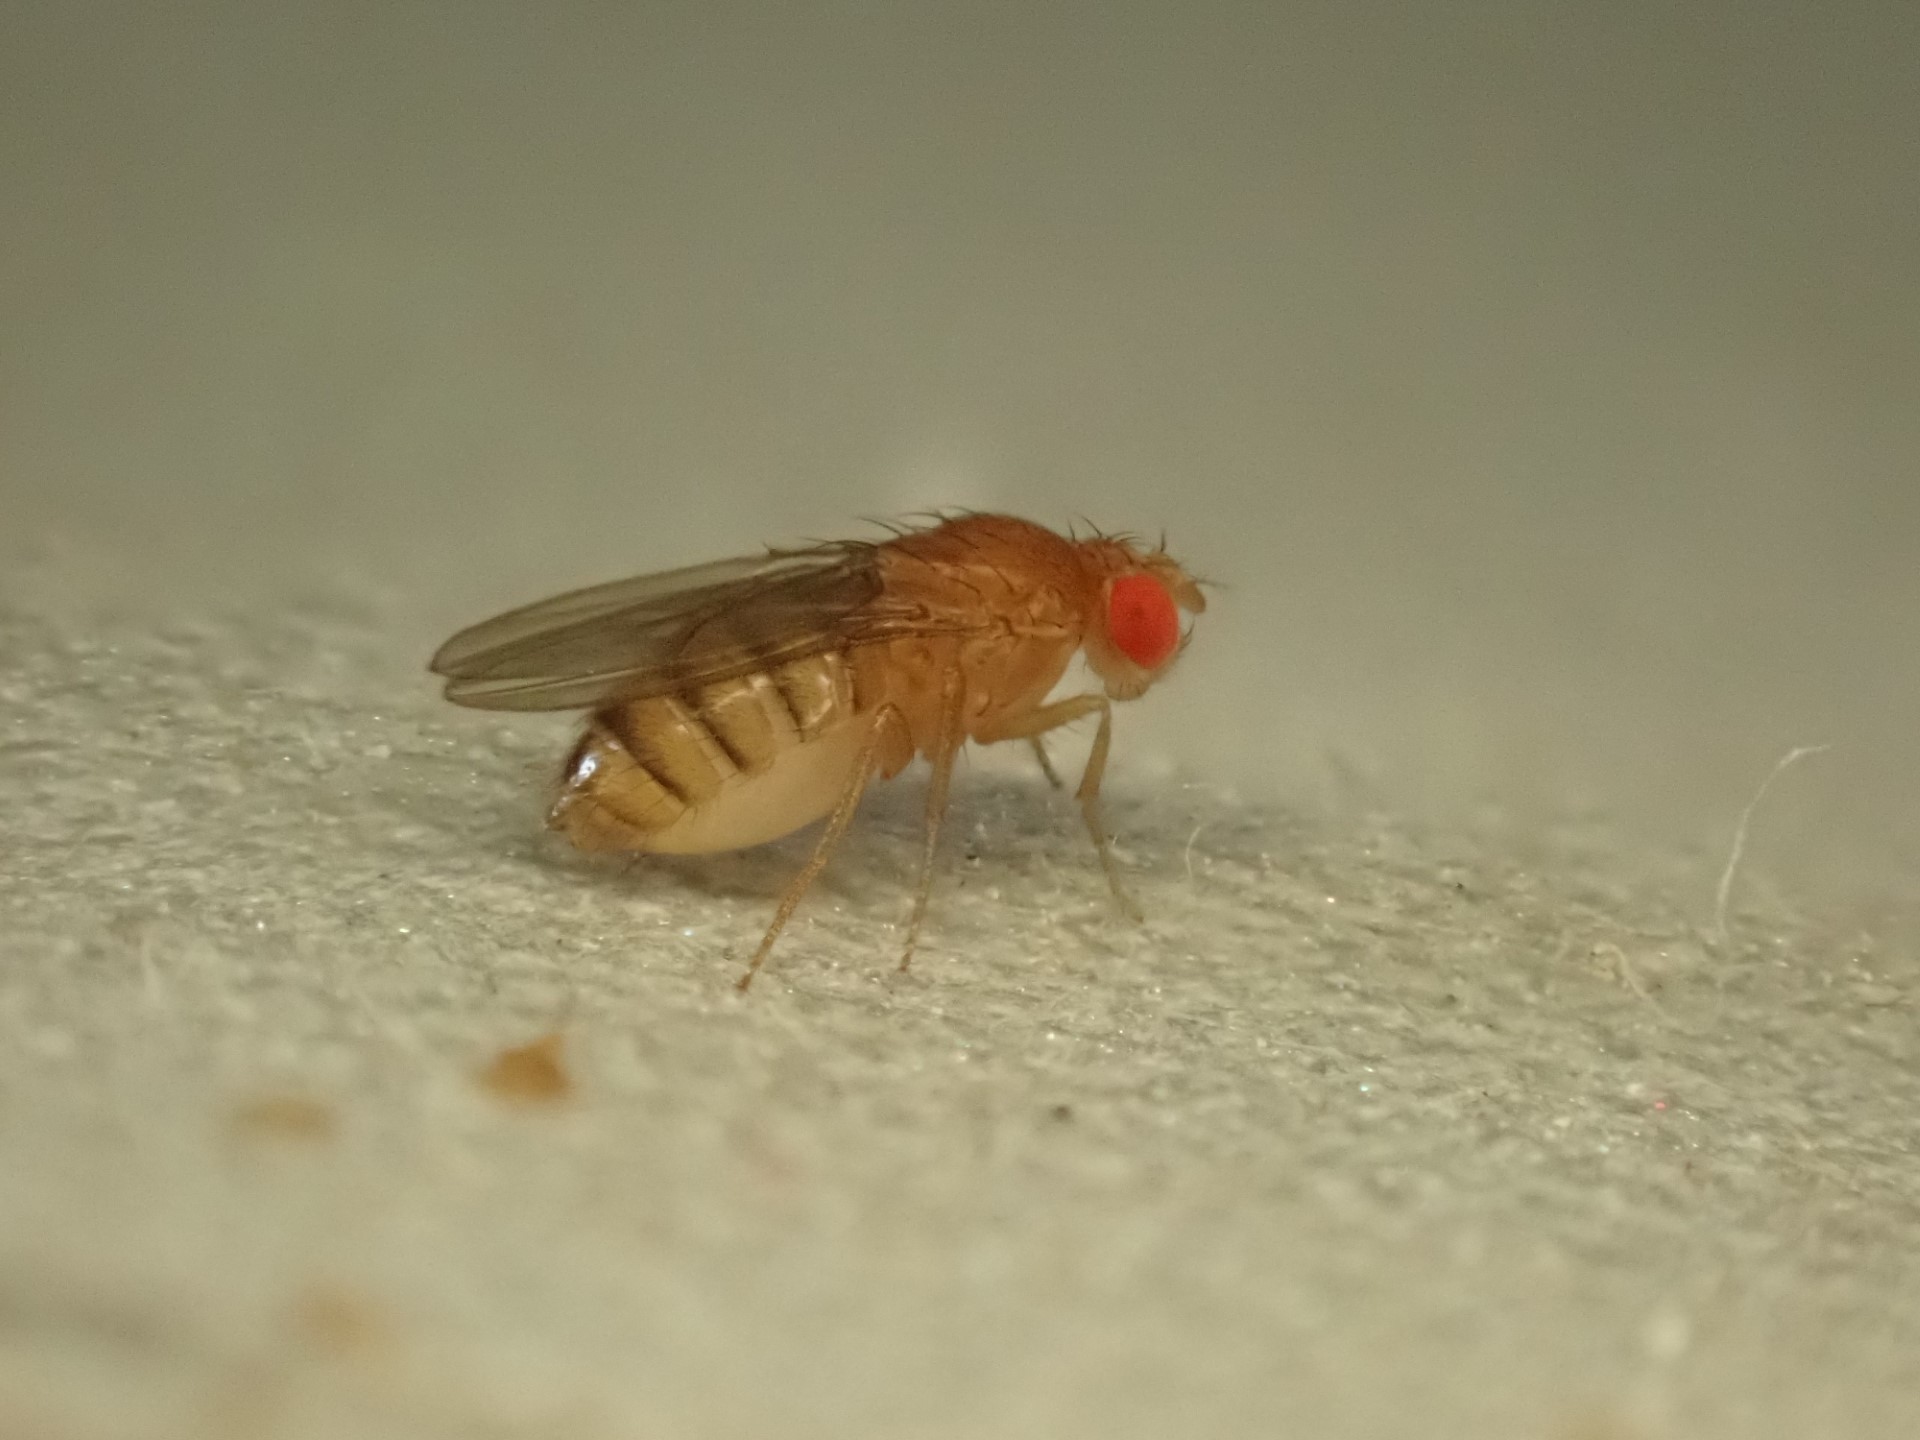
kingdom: Animalia
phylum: Arthropoda
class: Insecta
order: Diptera
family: Drosophilidae
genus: Drosophila
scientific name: Drosophila melanogaster
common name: Pomace fly
